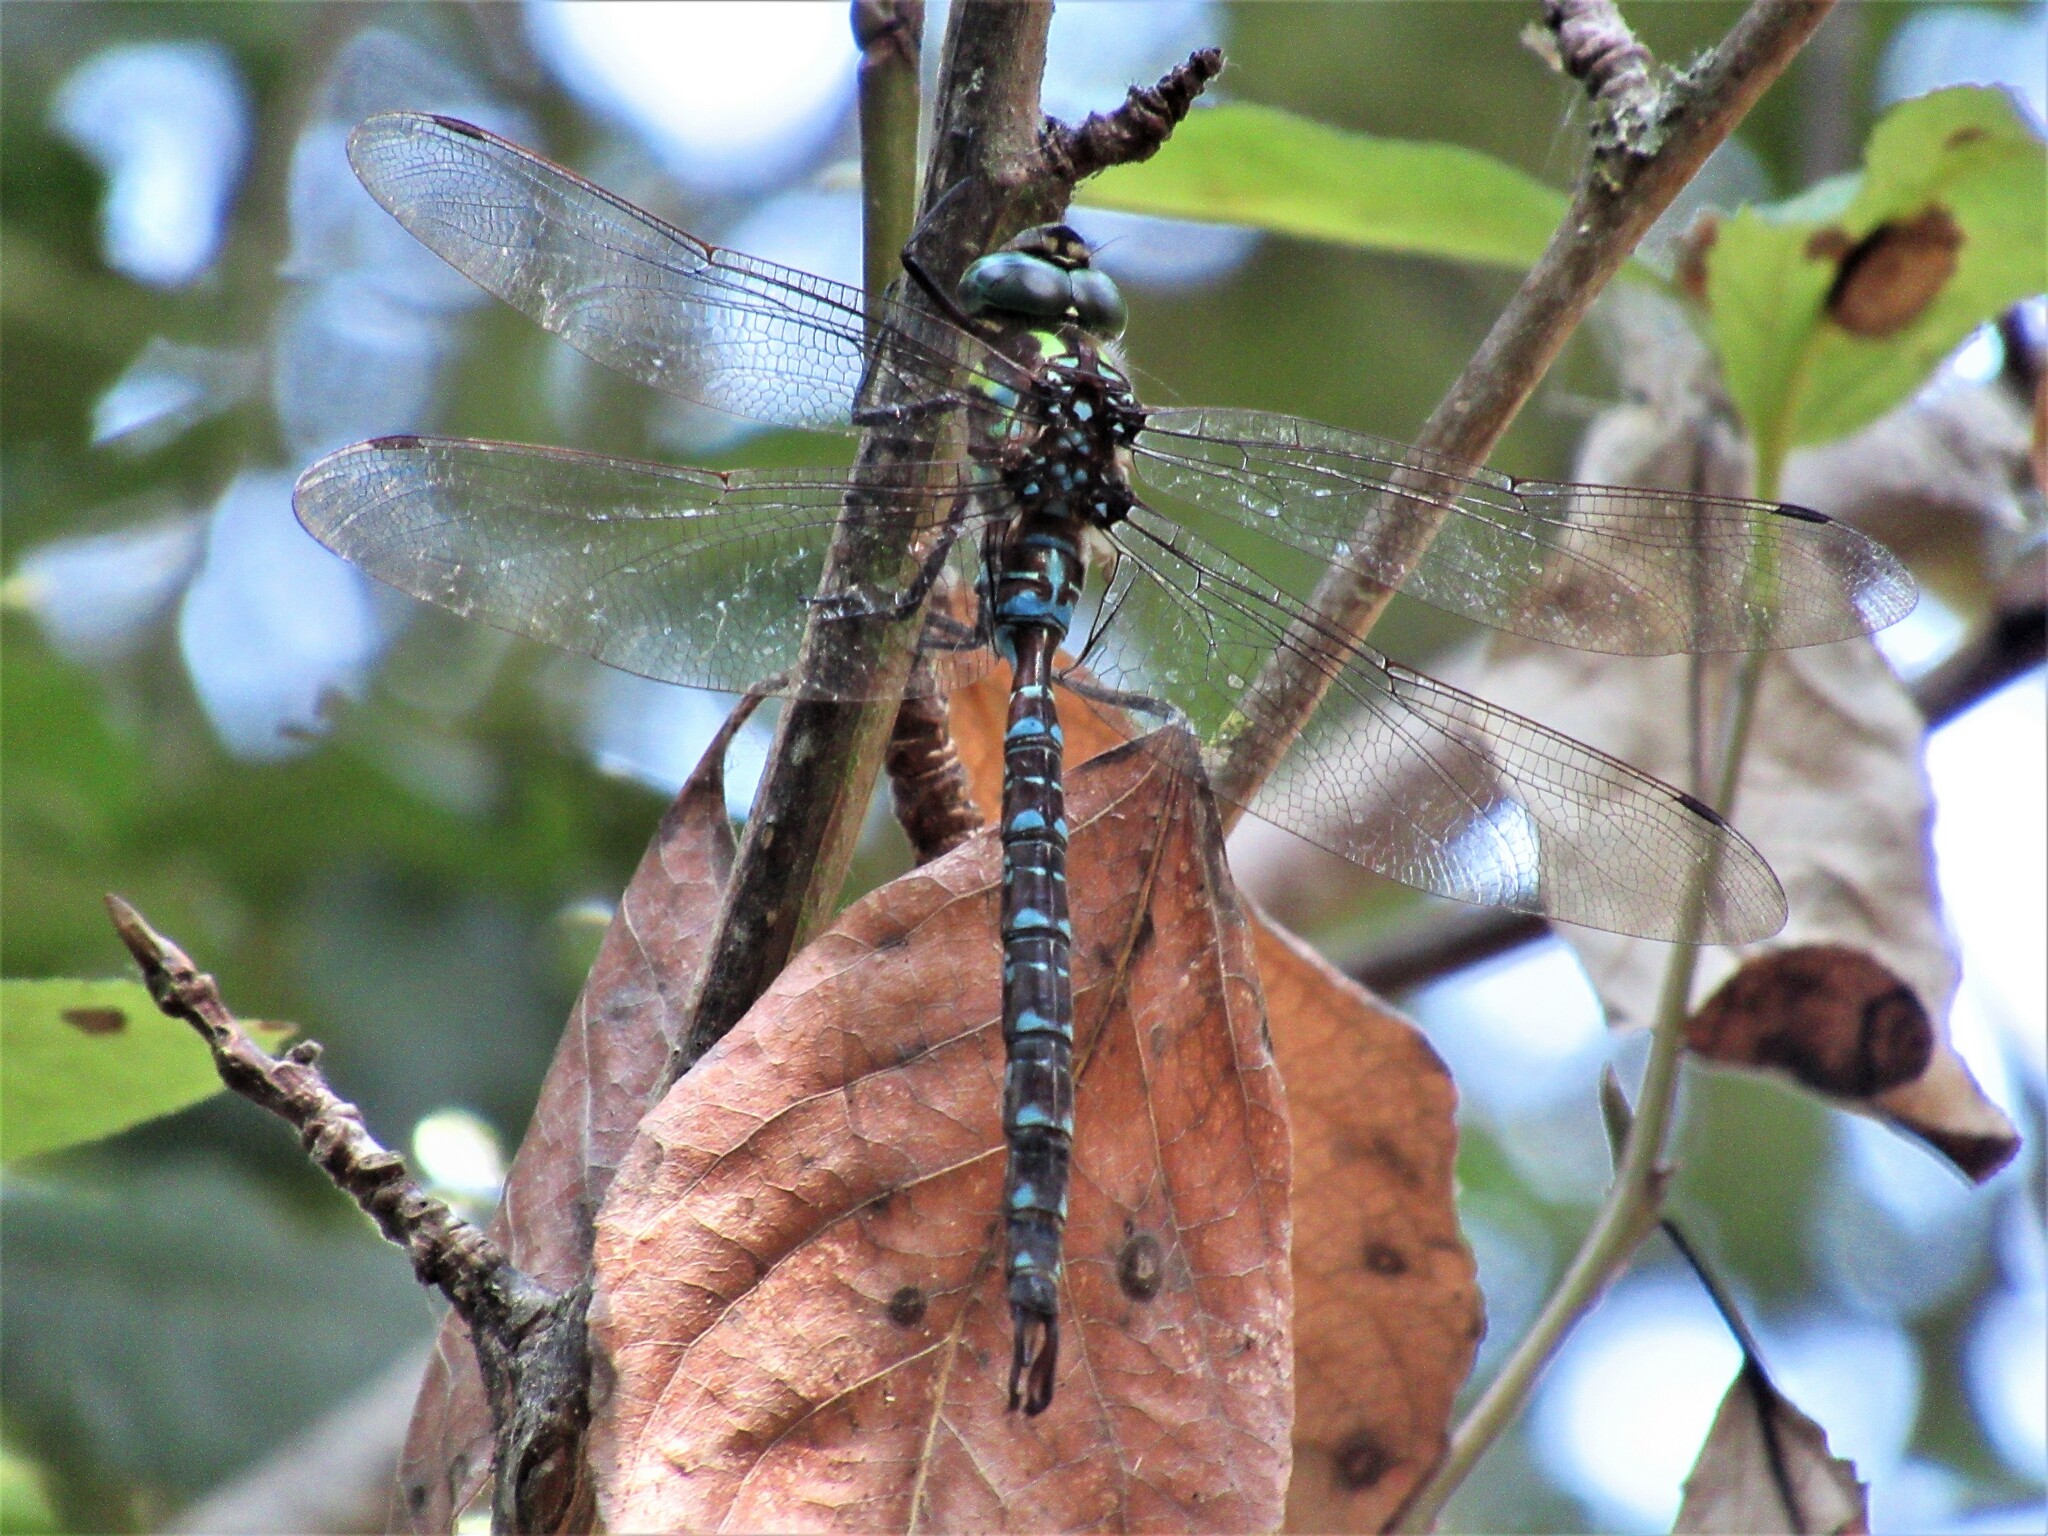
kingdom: Animalia
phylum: Arthropoda
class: Insecta
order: Odonata
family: Aeshnidae
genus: Aeshna
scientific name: Aeshna umbrosa
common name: Shadow darner
